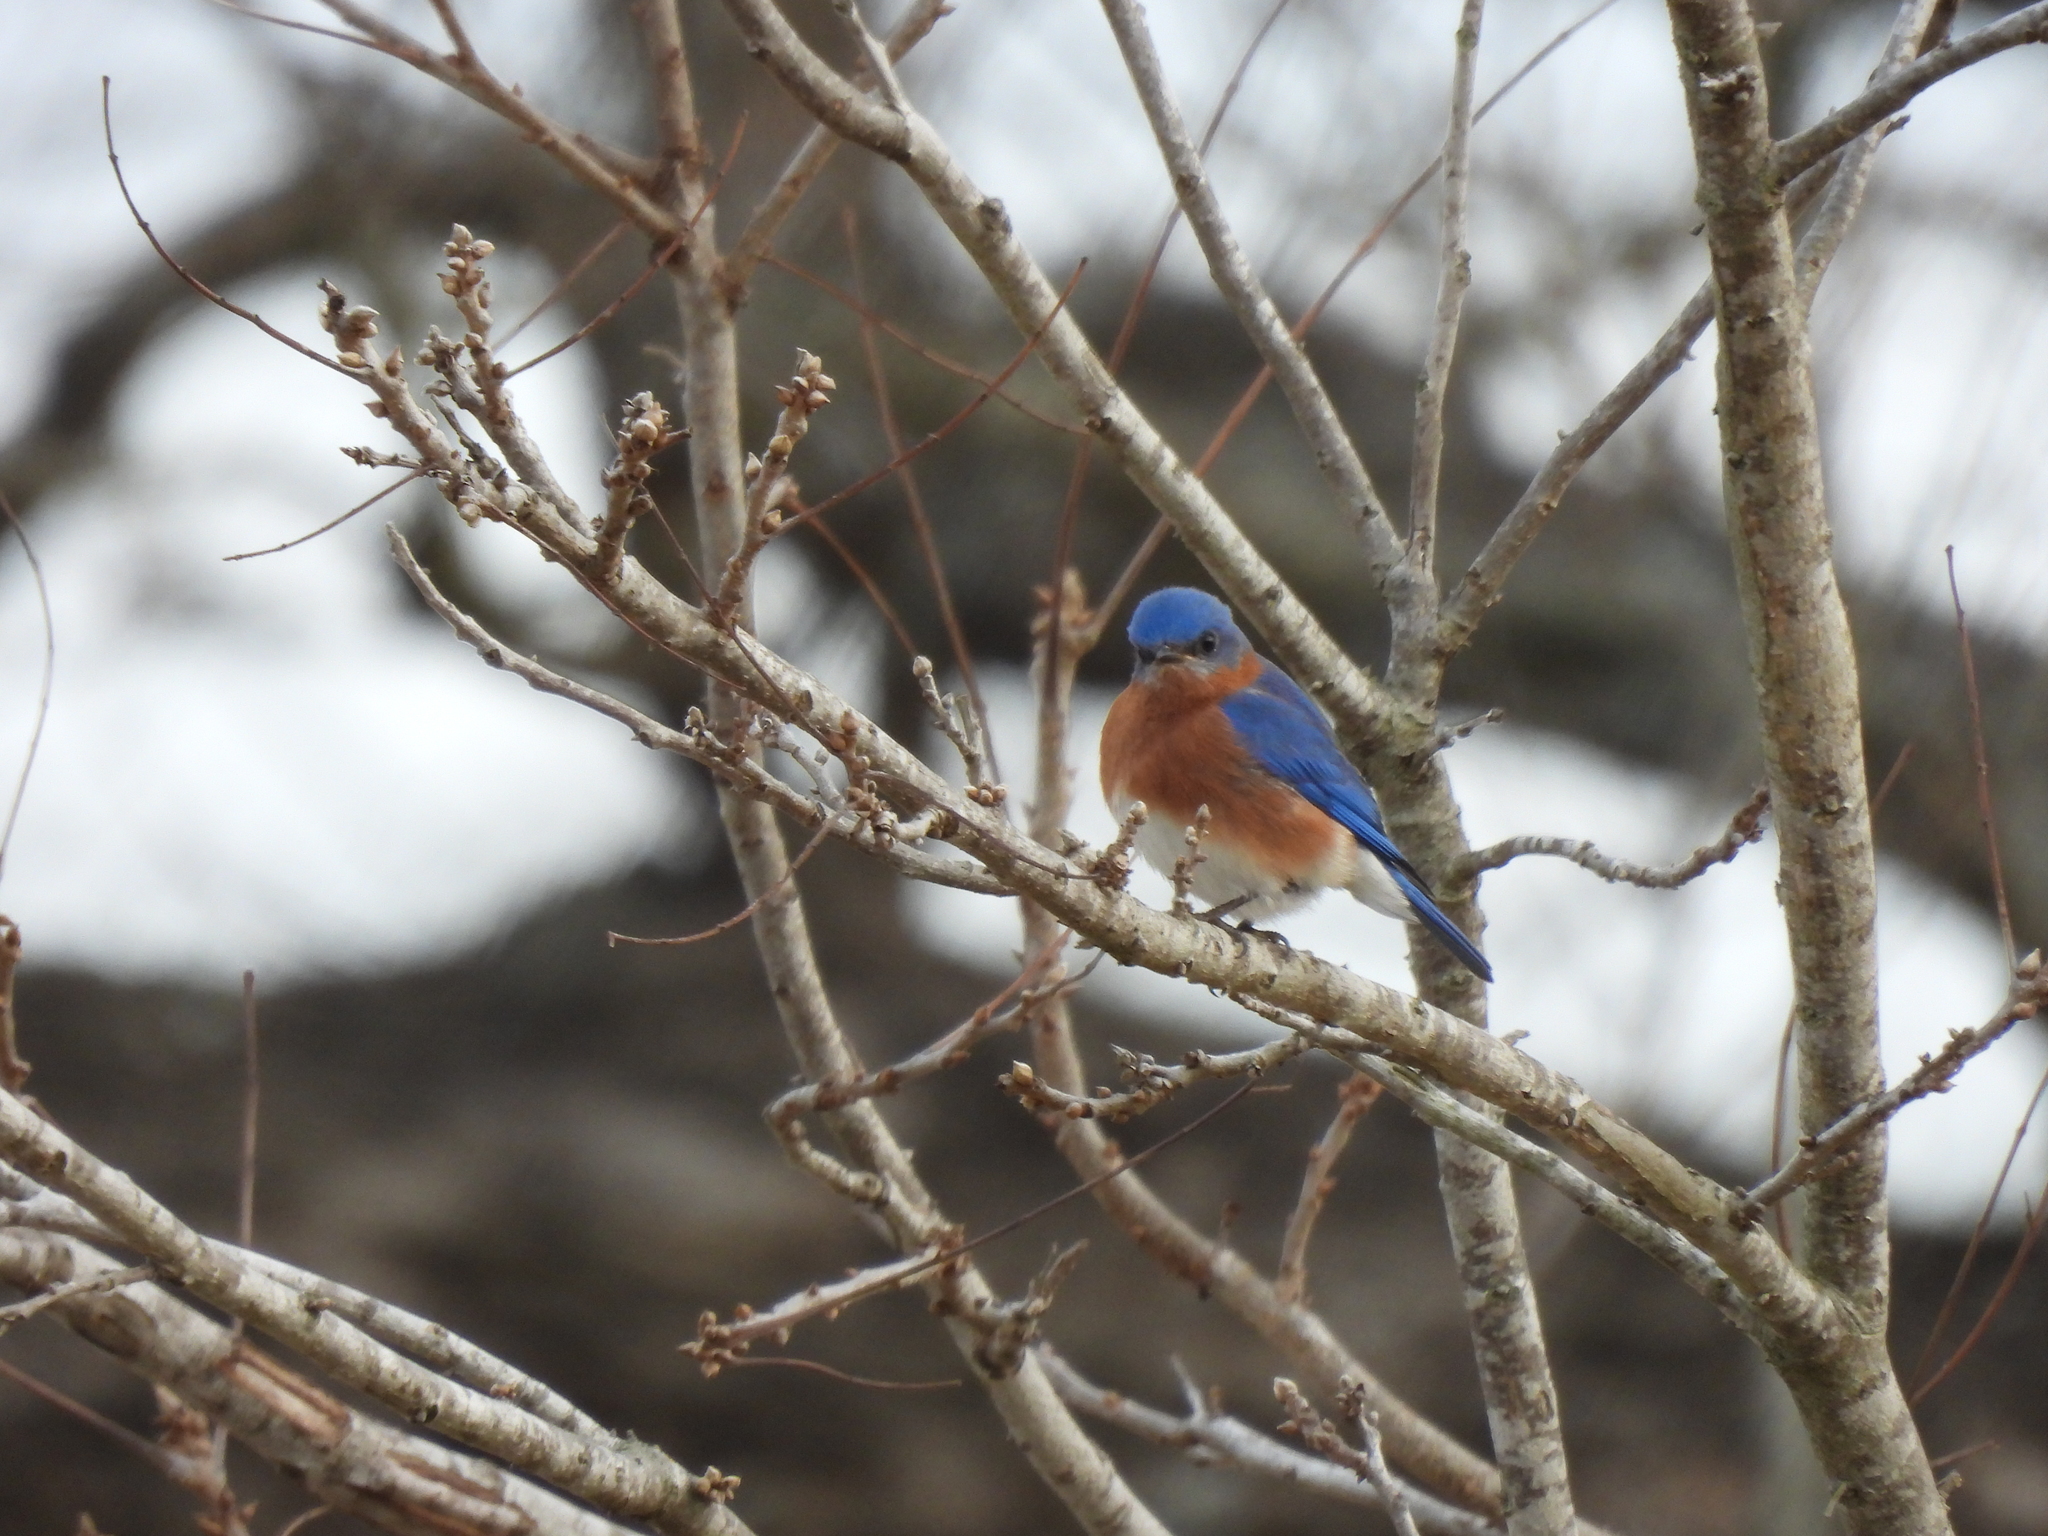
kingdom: Animalia
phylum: Chordata
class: Aves
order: Passeriformes
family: Turdidae
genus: Sialia
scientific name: Sialia sialis
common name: Eastern bluebird
